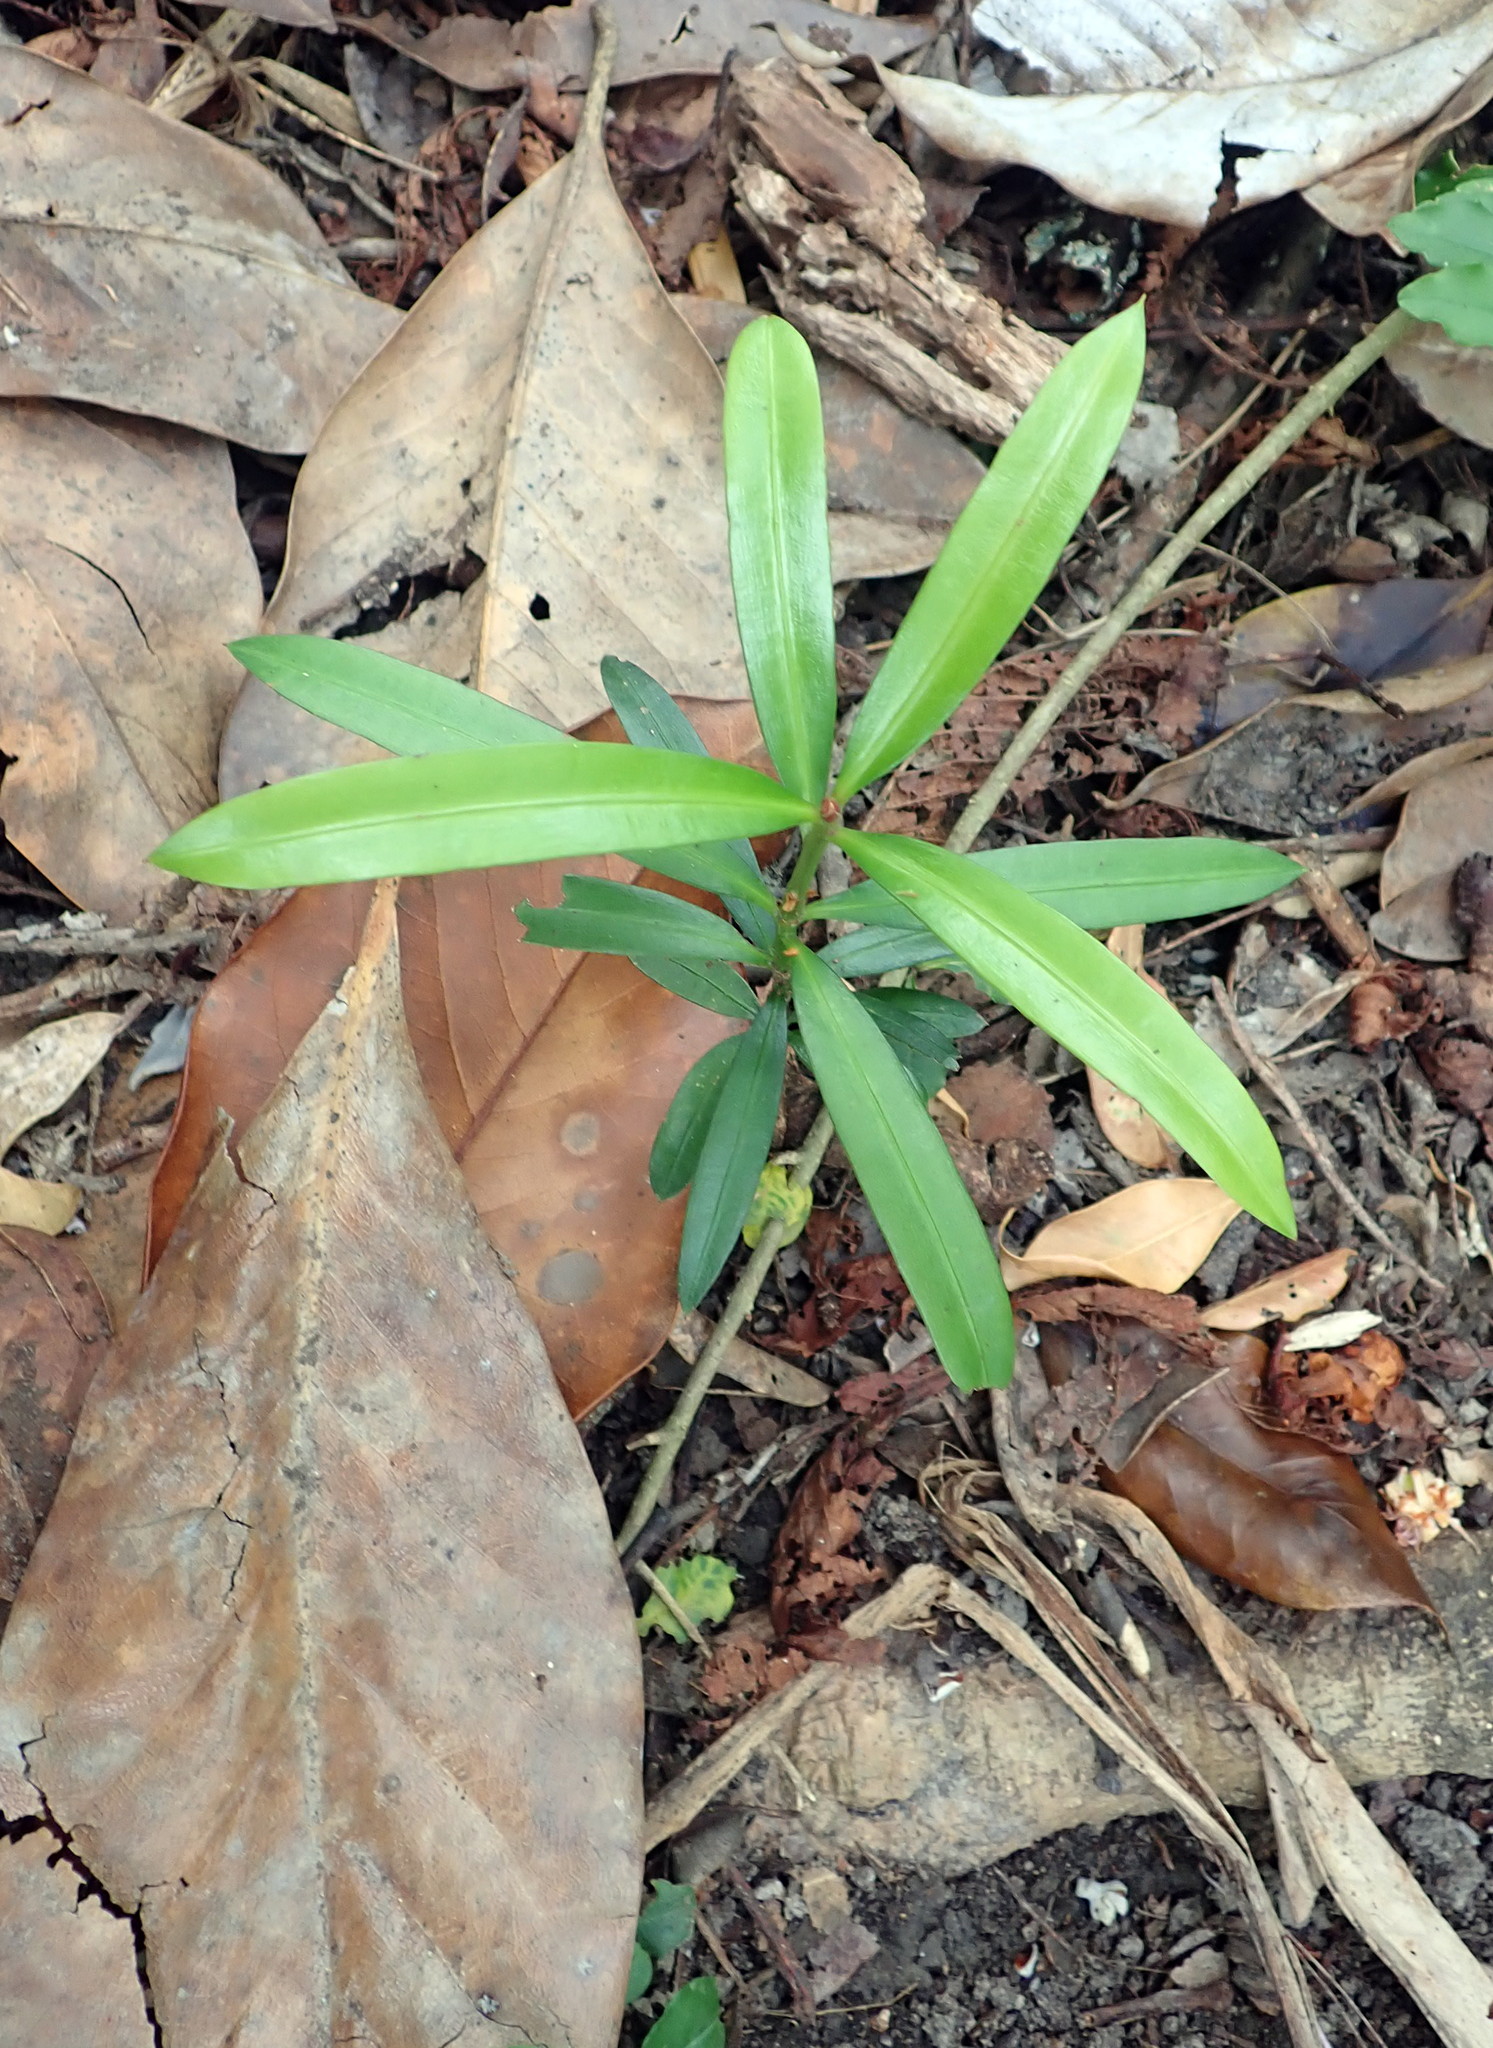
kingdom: Plantae
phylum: Tracheophyta
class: Pinopsida
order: Pinales
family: Podocarpaceae
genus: Podocarpus
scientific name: Podocarpus elatus
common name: Plum pine
